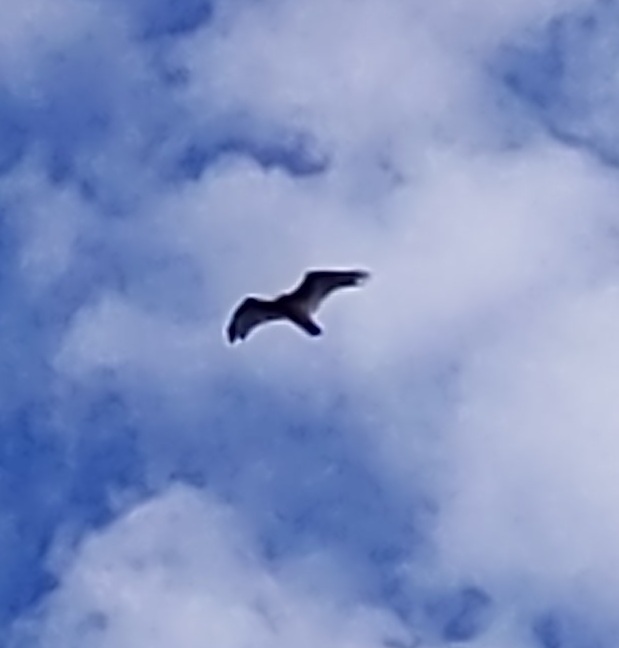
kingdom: Animalia
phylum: Chordata
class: Aves
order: Accipitriformes
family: Cathartidae
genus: Cathartes
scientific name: Cathartes aura
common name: Turkey vulture
